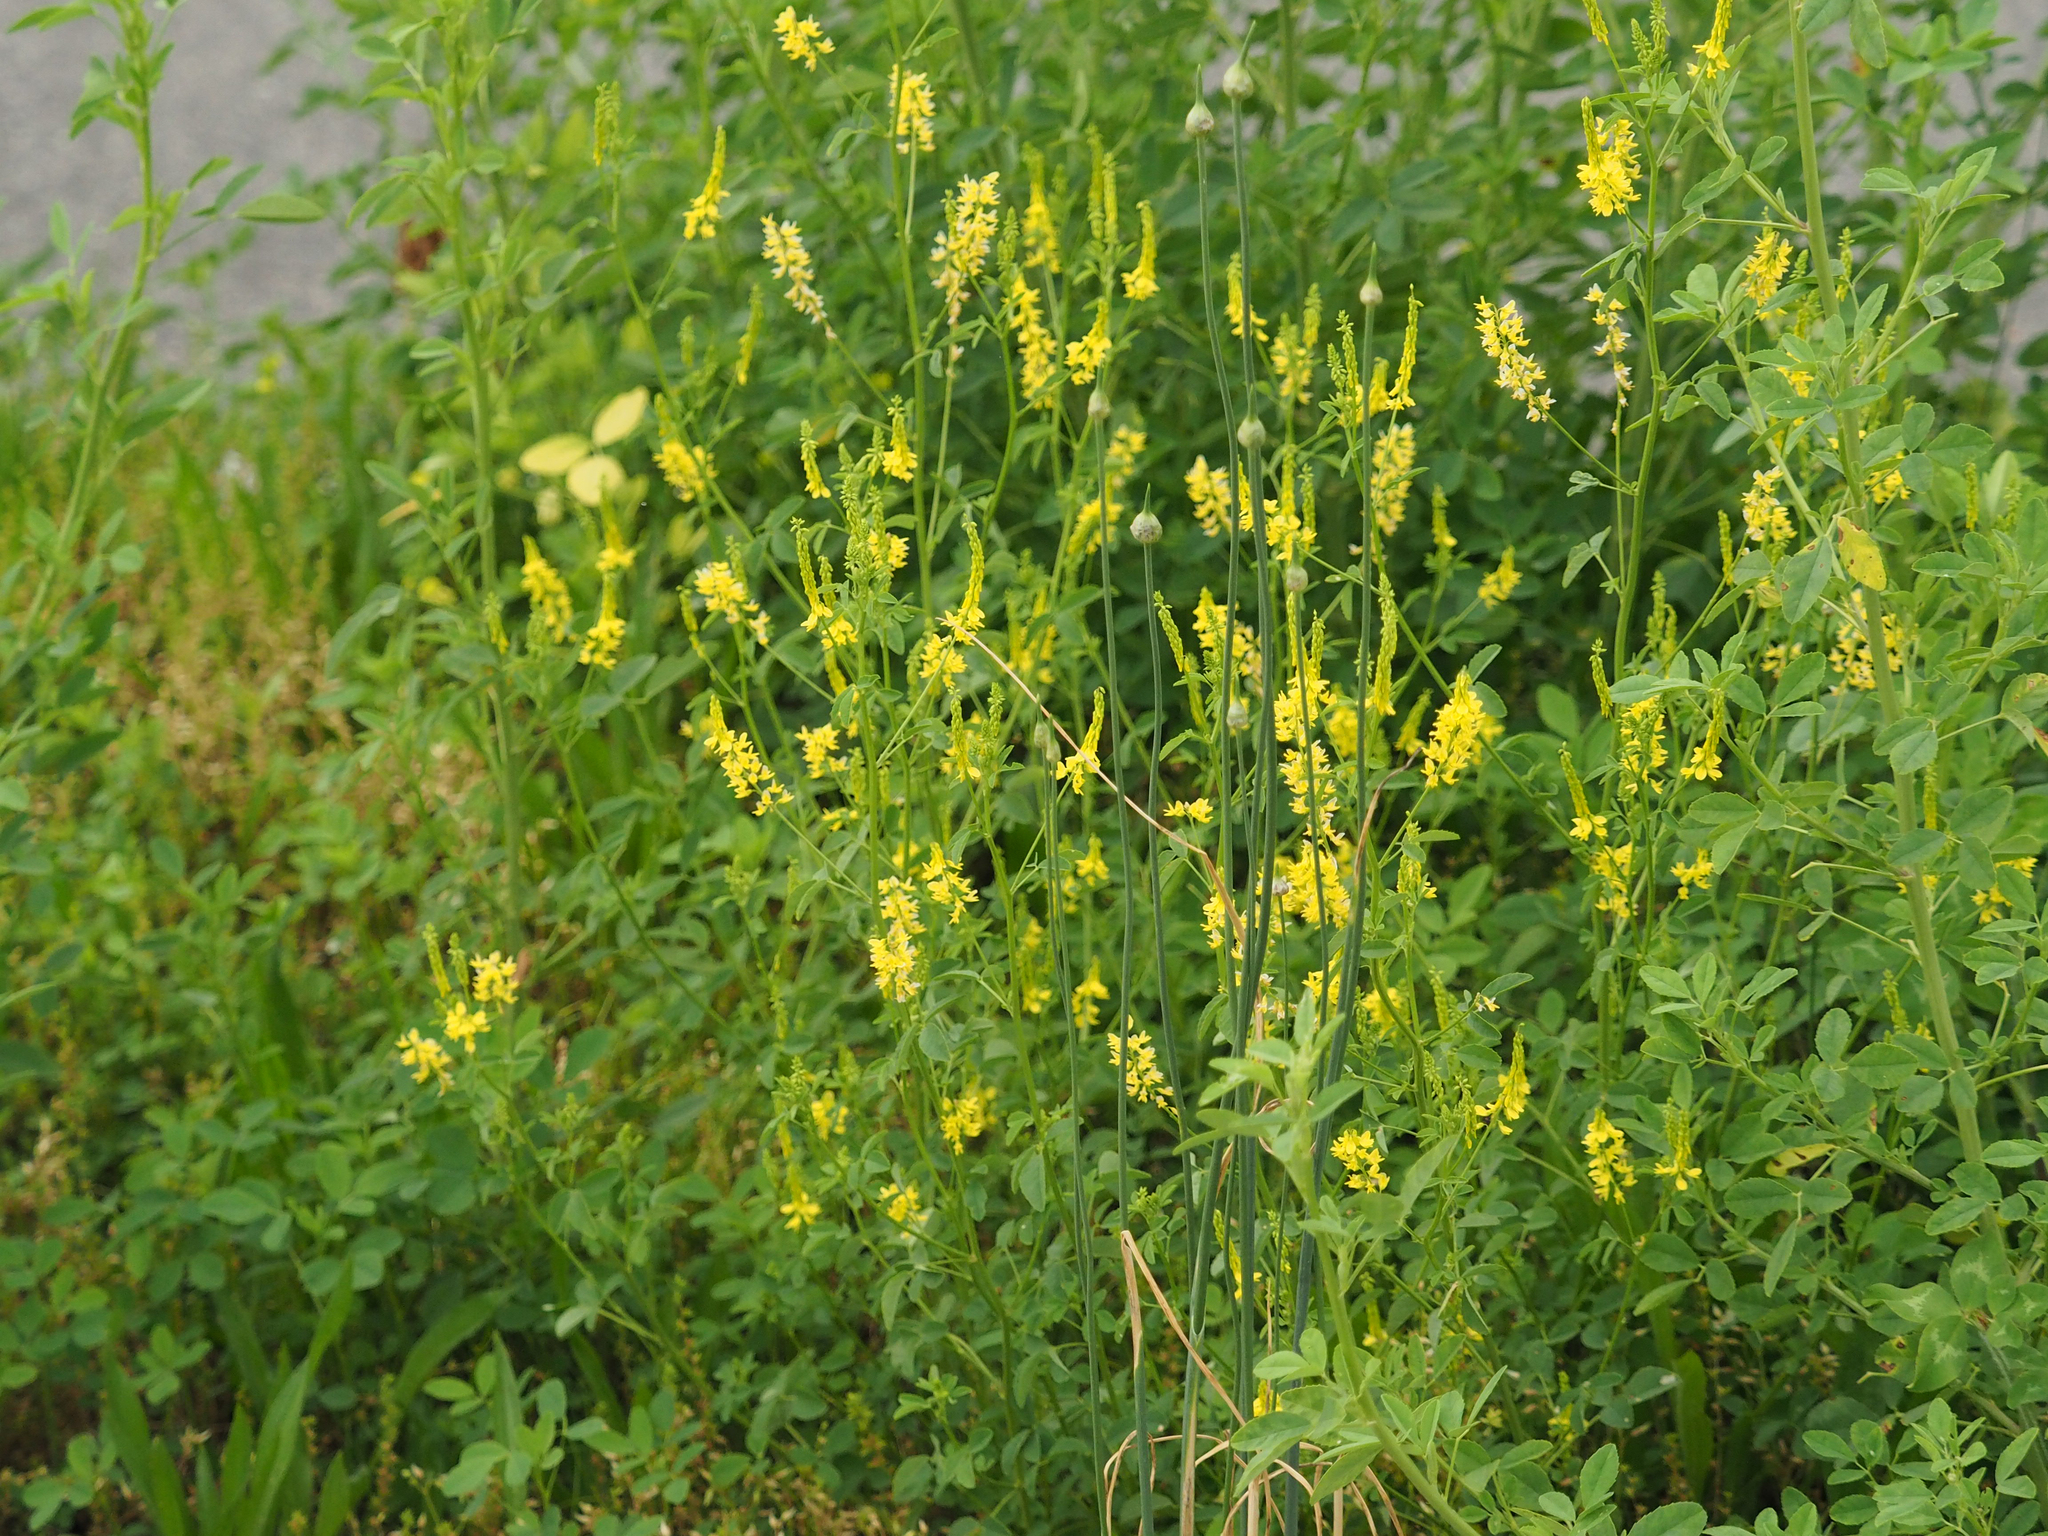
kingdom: Plantae
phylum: Tracheophyta
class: Magnoliopsida
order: Fabales
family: Fabaceae
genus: Melilotus
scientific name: Melilotus officinalis
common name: Sweetclover
